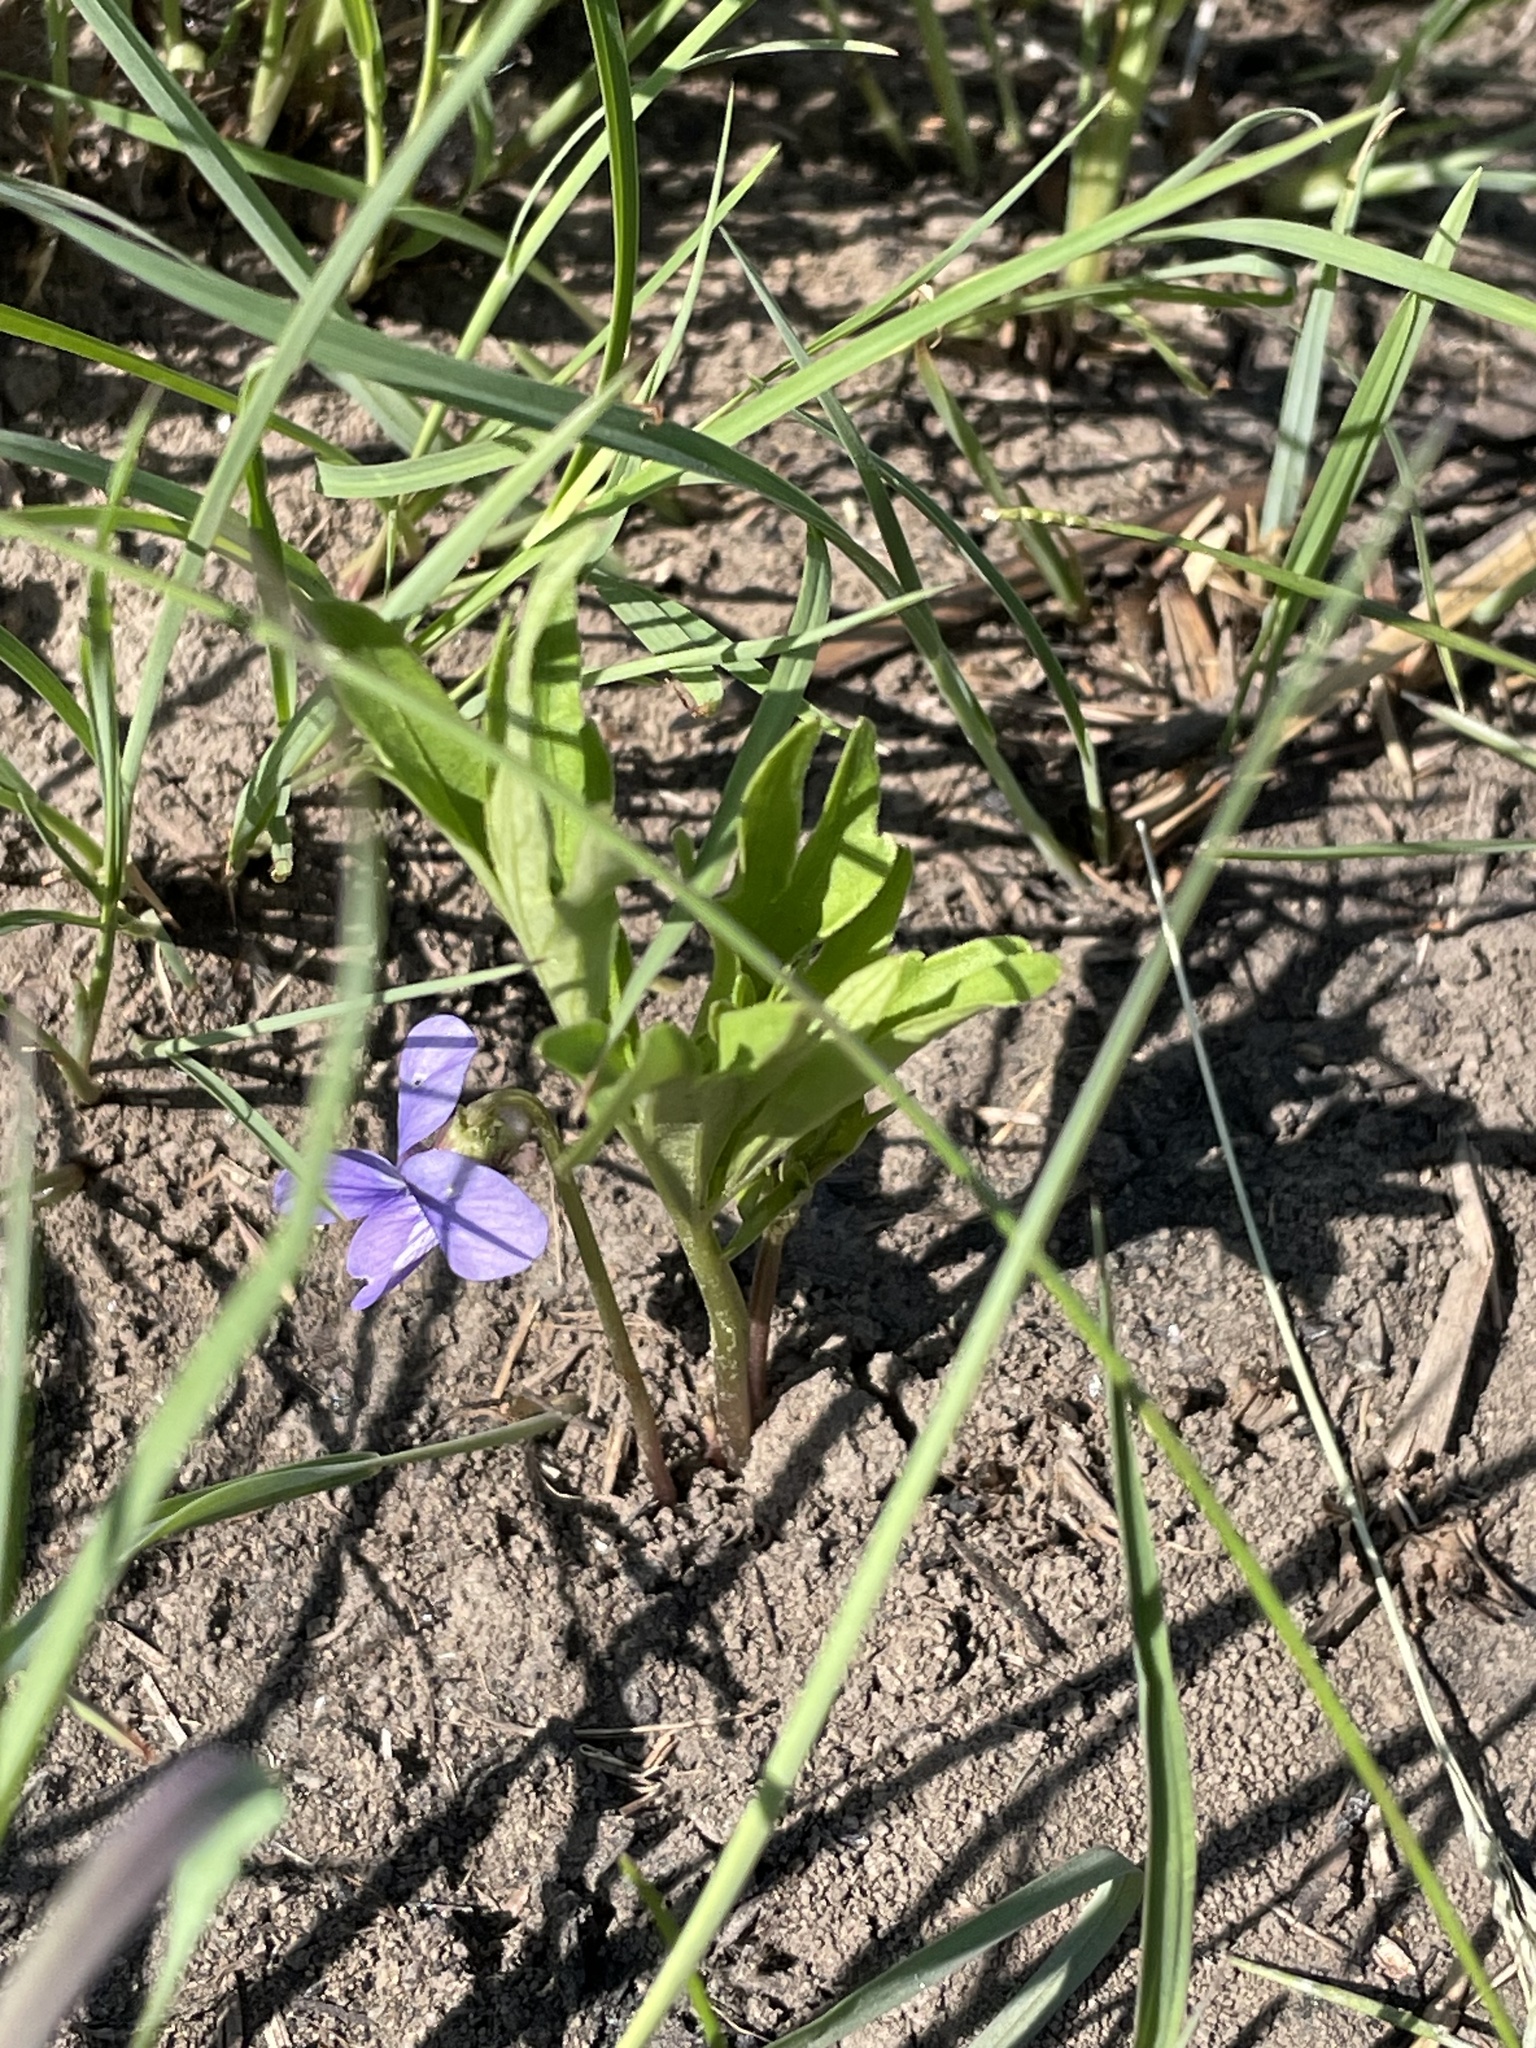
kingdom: Plantae
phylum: Tracheophyta
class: Magnoliopsida
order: Malpighiales
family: Violaceae
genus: Viola
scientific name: Viola pedatifida
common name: Prairie violet
